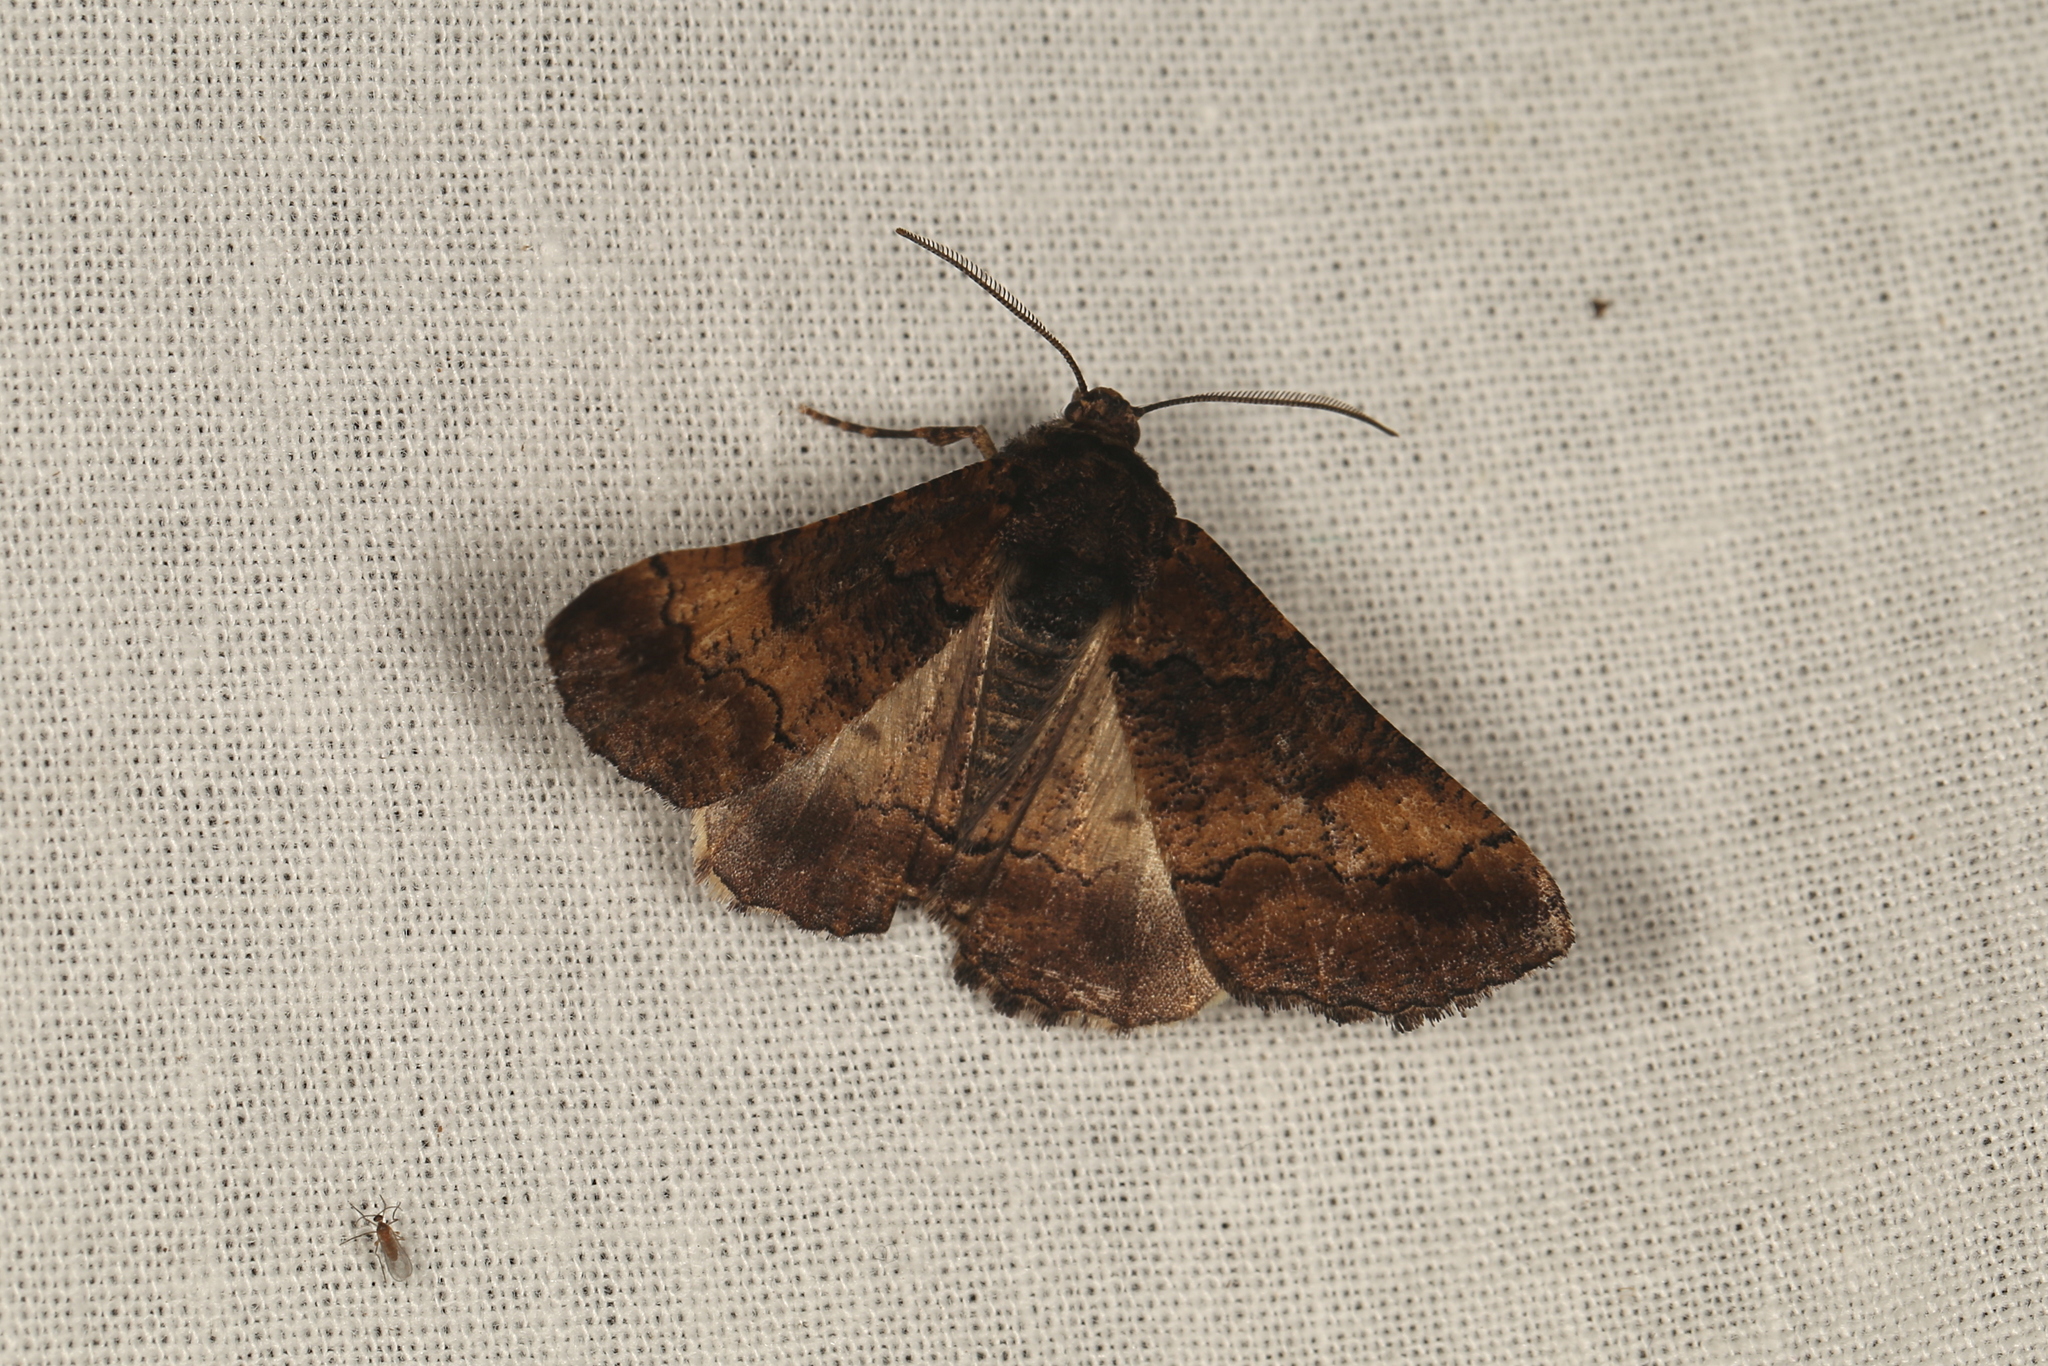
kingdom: Animalia
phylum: Arthropoda
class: Insecta
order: Lepidoptera
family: Geometridae
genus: Gastrinopa
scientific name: Gastrinopa xylistis
